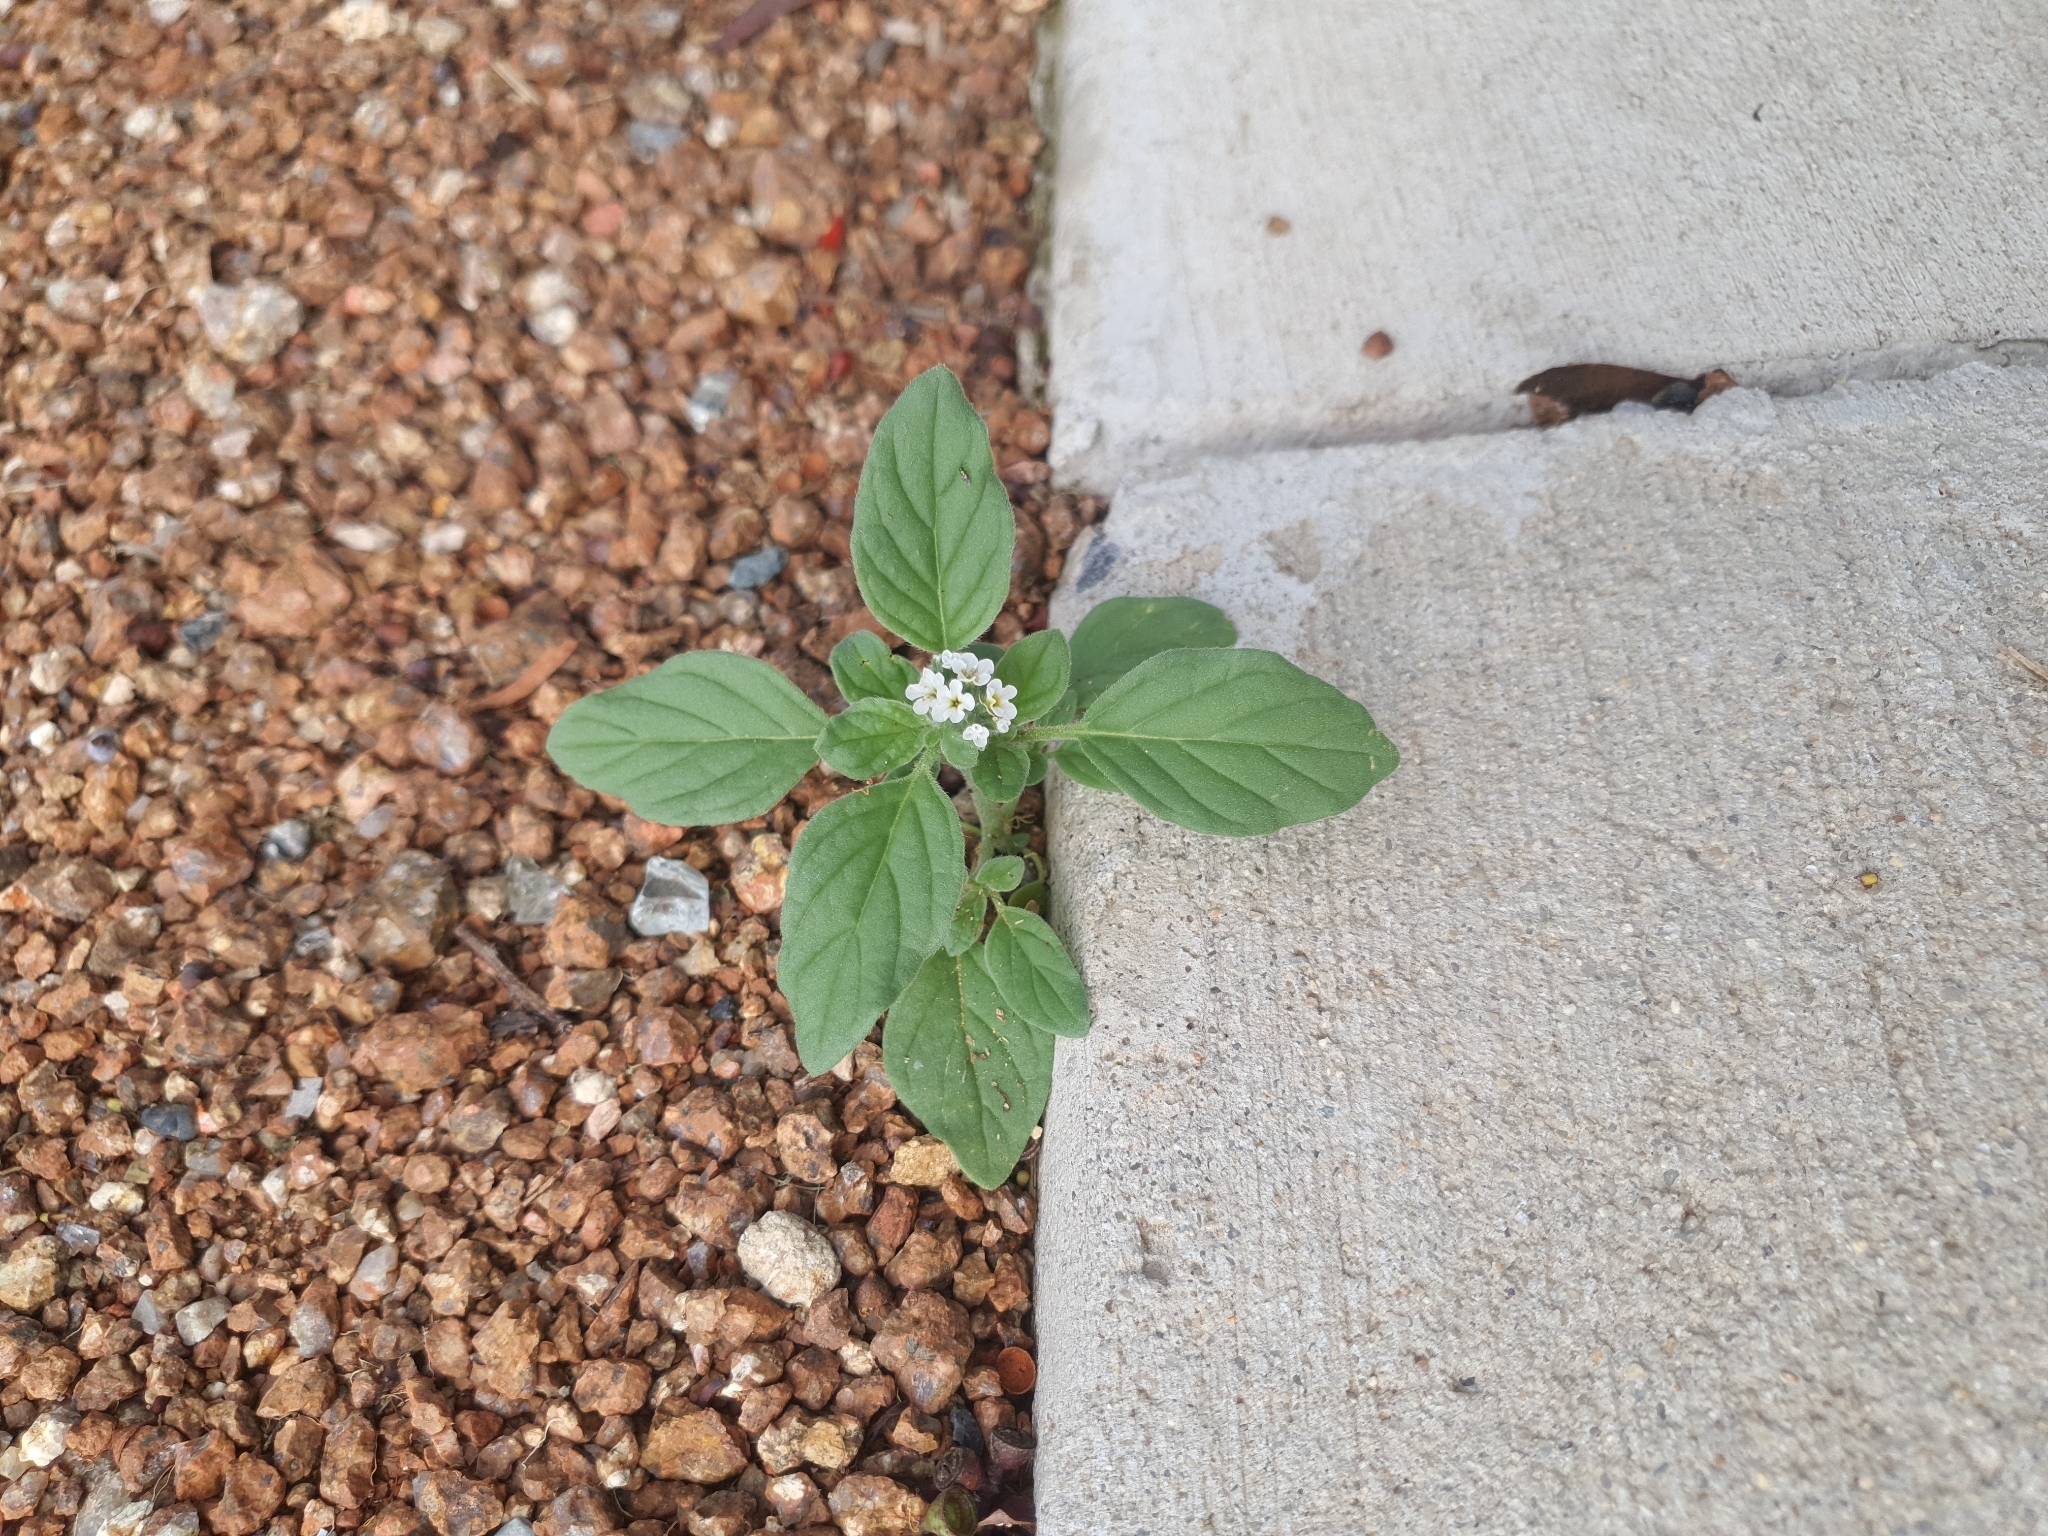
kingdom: Plantae
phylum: Tracheophyta
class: Magnoliopsida
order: Boraginales
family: Heliotropiaceae
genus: Heliotropium
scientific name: Heliotropium europaeum
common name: European heliotrope
